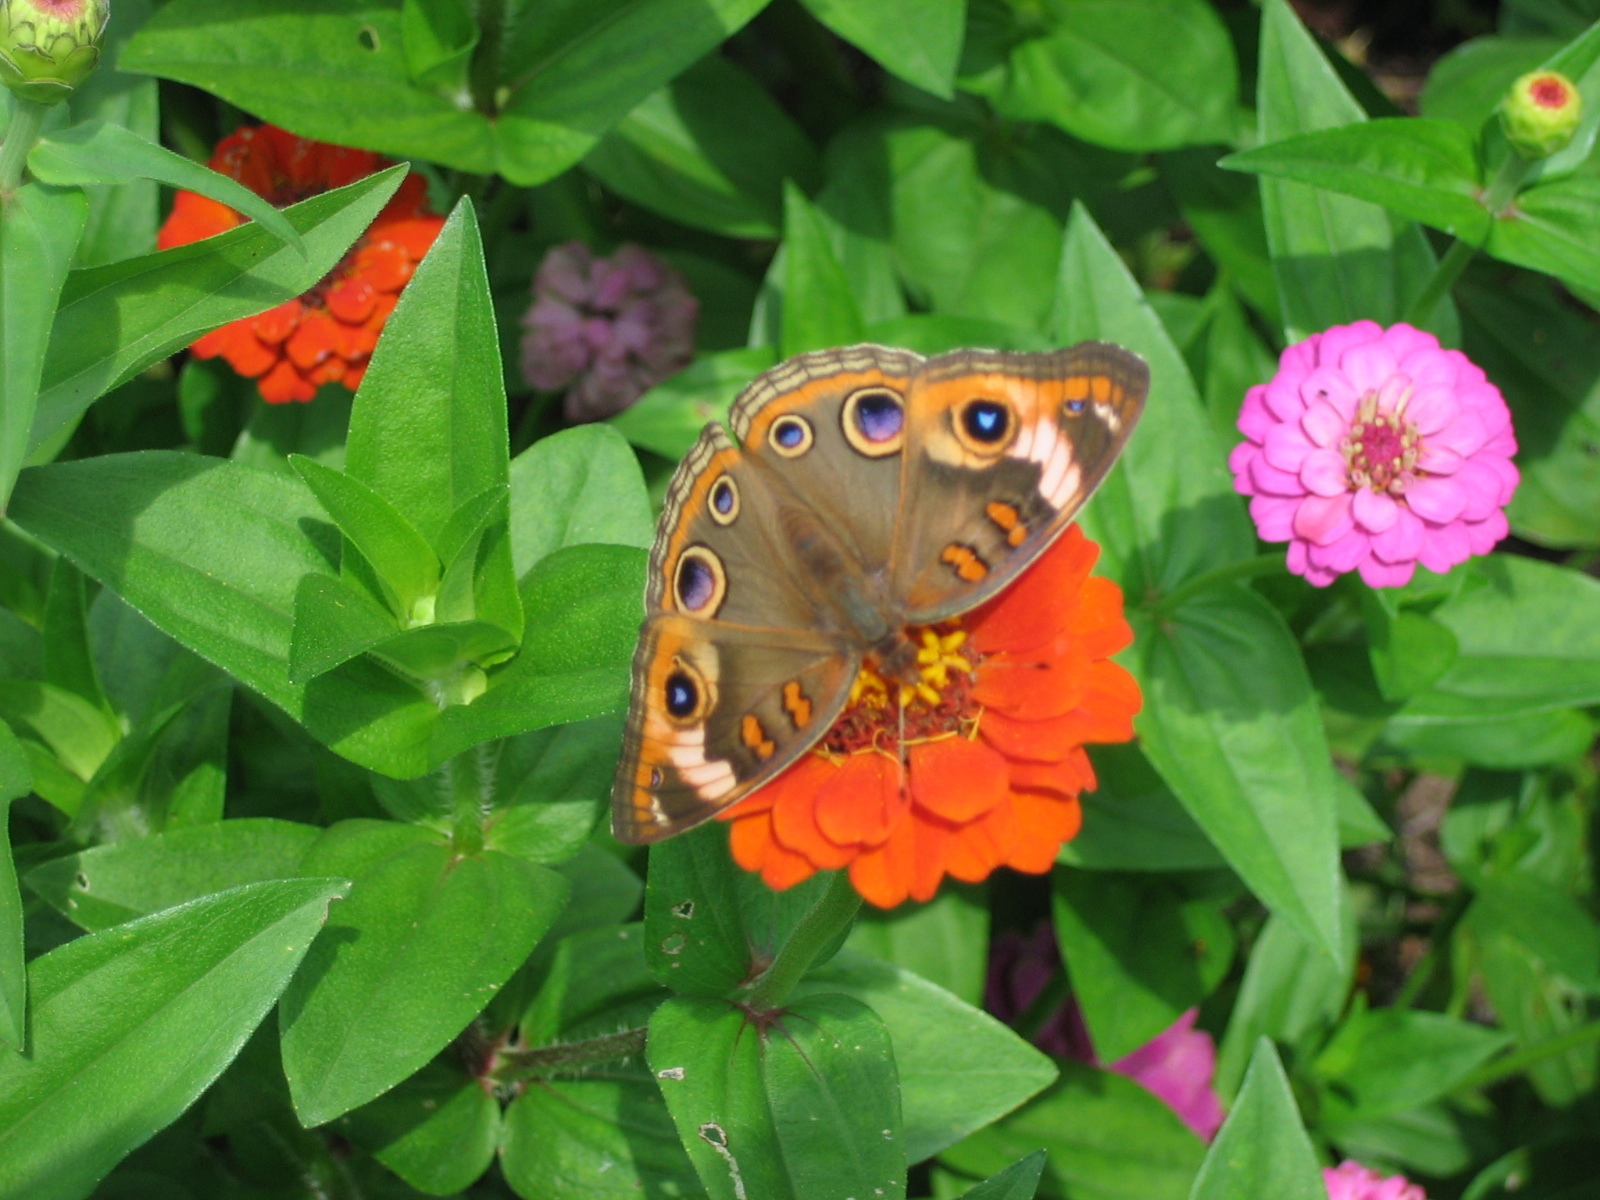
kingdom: Animalia
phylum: Arthropoda
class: Insecta
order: Lepidoptera
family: Nymphalidae
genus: Junonia
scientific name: Junonia coenia
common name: Common buckeye
